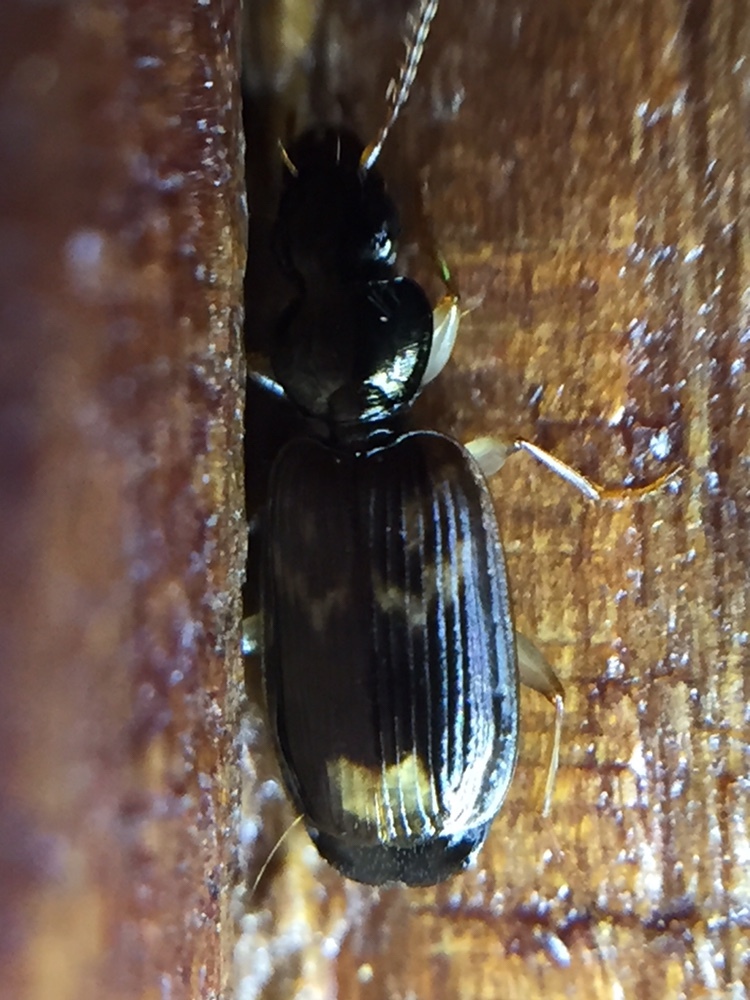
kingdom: Animalia
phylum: Arthropoda
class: Insecta
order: Coleoptera
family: Carabidae
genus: Anomotarus
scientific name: Anomotarus variegatus
